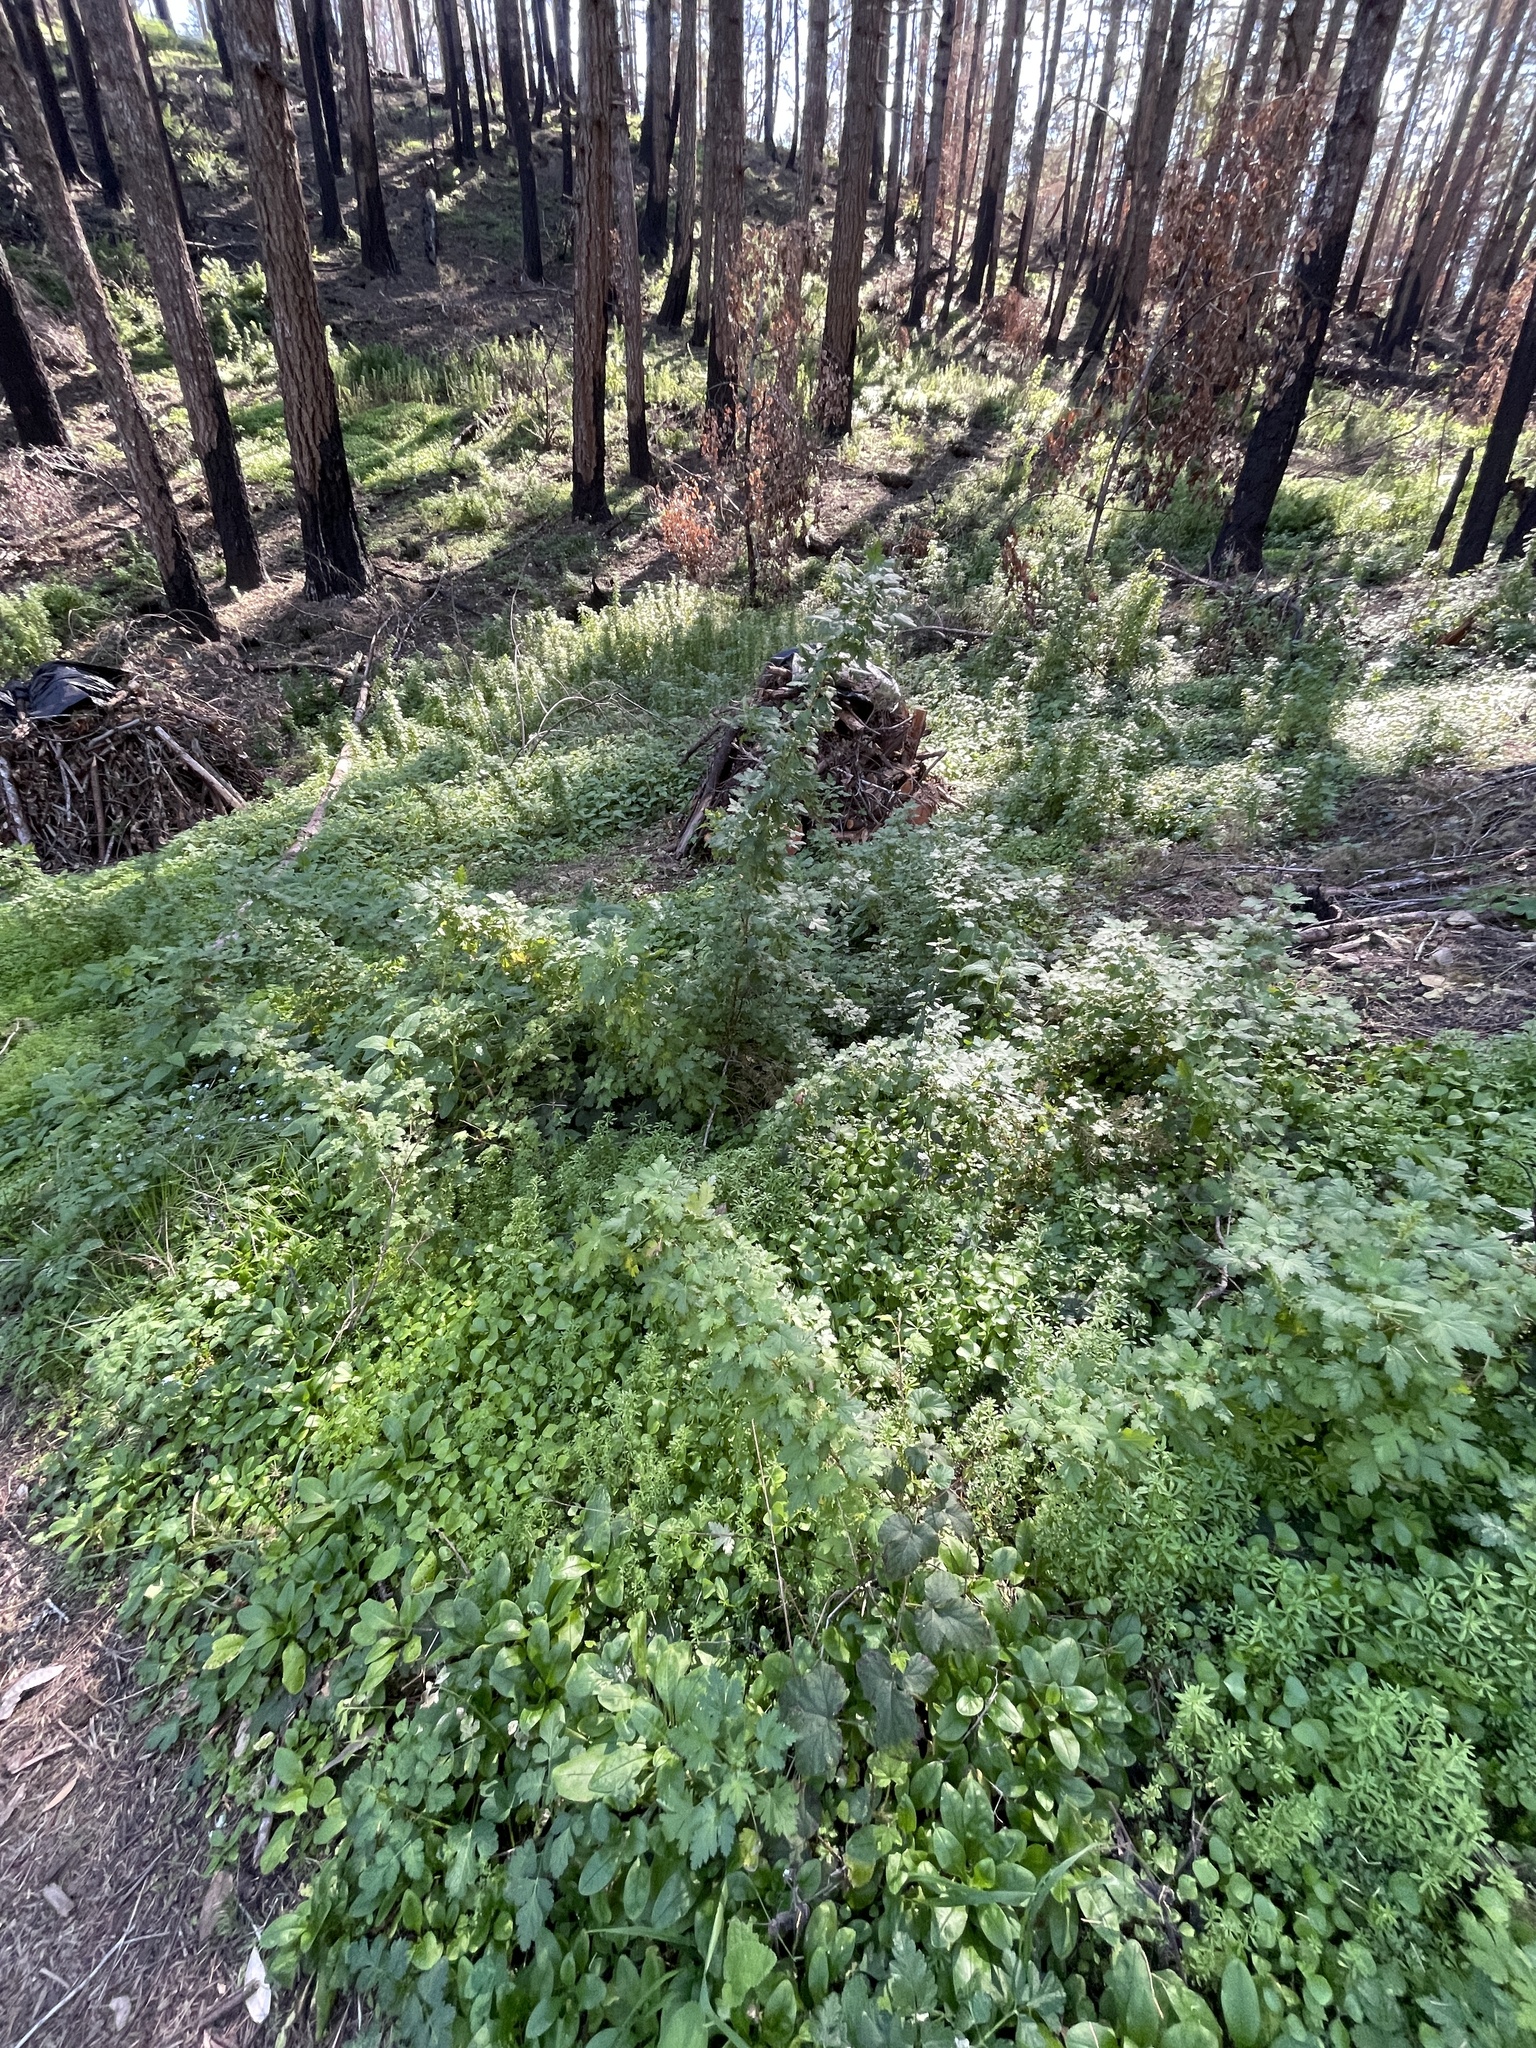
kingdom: Plantae
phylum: Tracheophyta
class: Magnoliopsida
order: Saxifragales
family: Grossulariaceae
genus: Ribes
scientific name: Ribes divaricatum
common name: Wild black gooseberry
